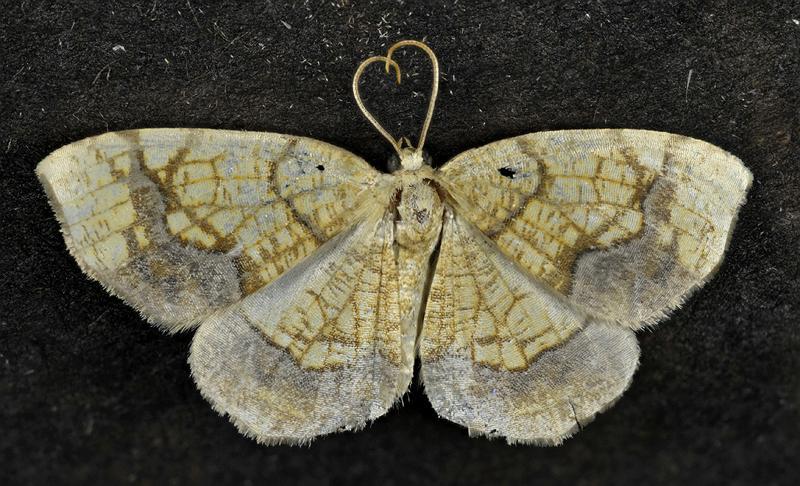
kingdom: Animalia
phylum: Arthropoda
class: Insecta
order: Lepidoptera
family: Geometridae
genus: Nematocampa
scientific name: Nematocampa resistaria
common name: Horned spanworm moth
